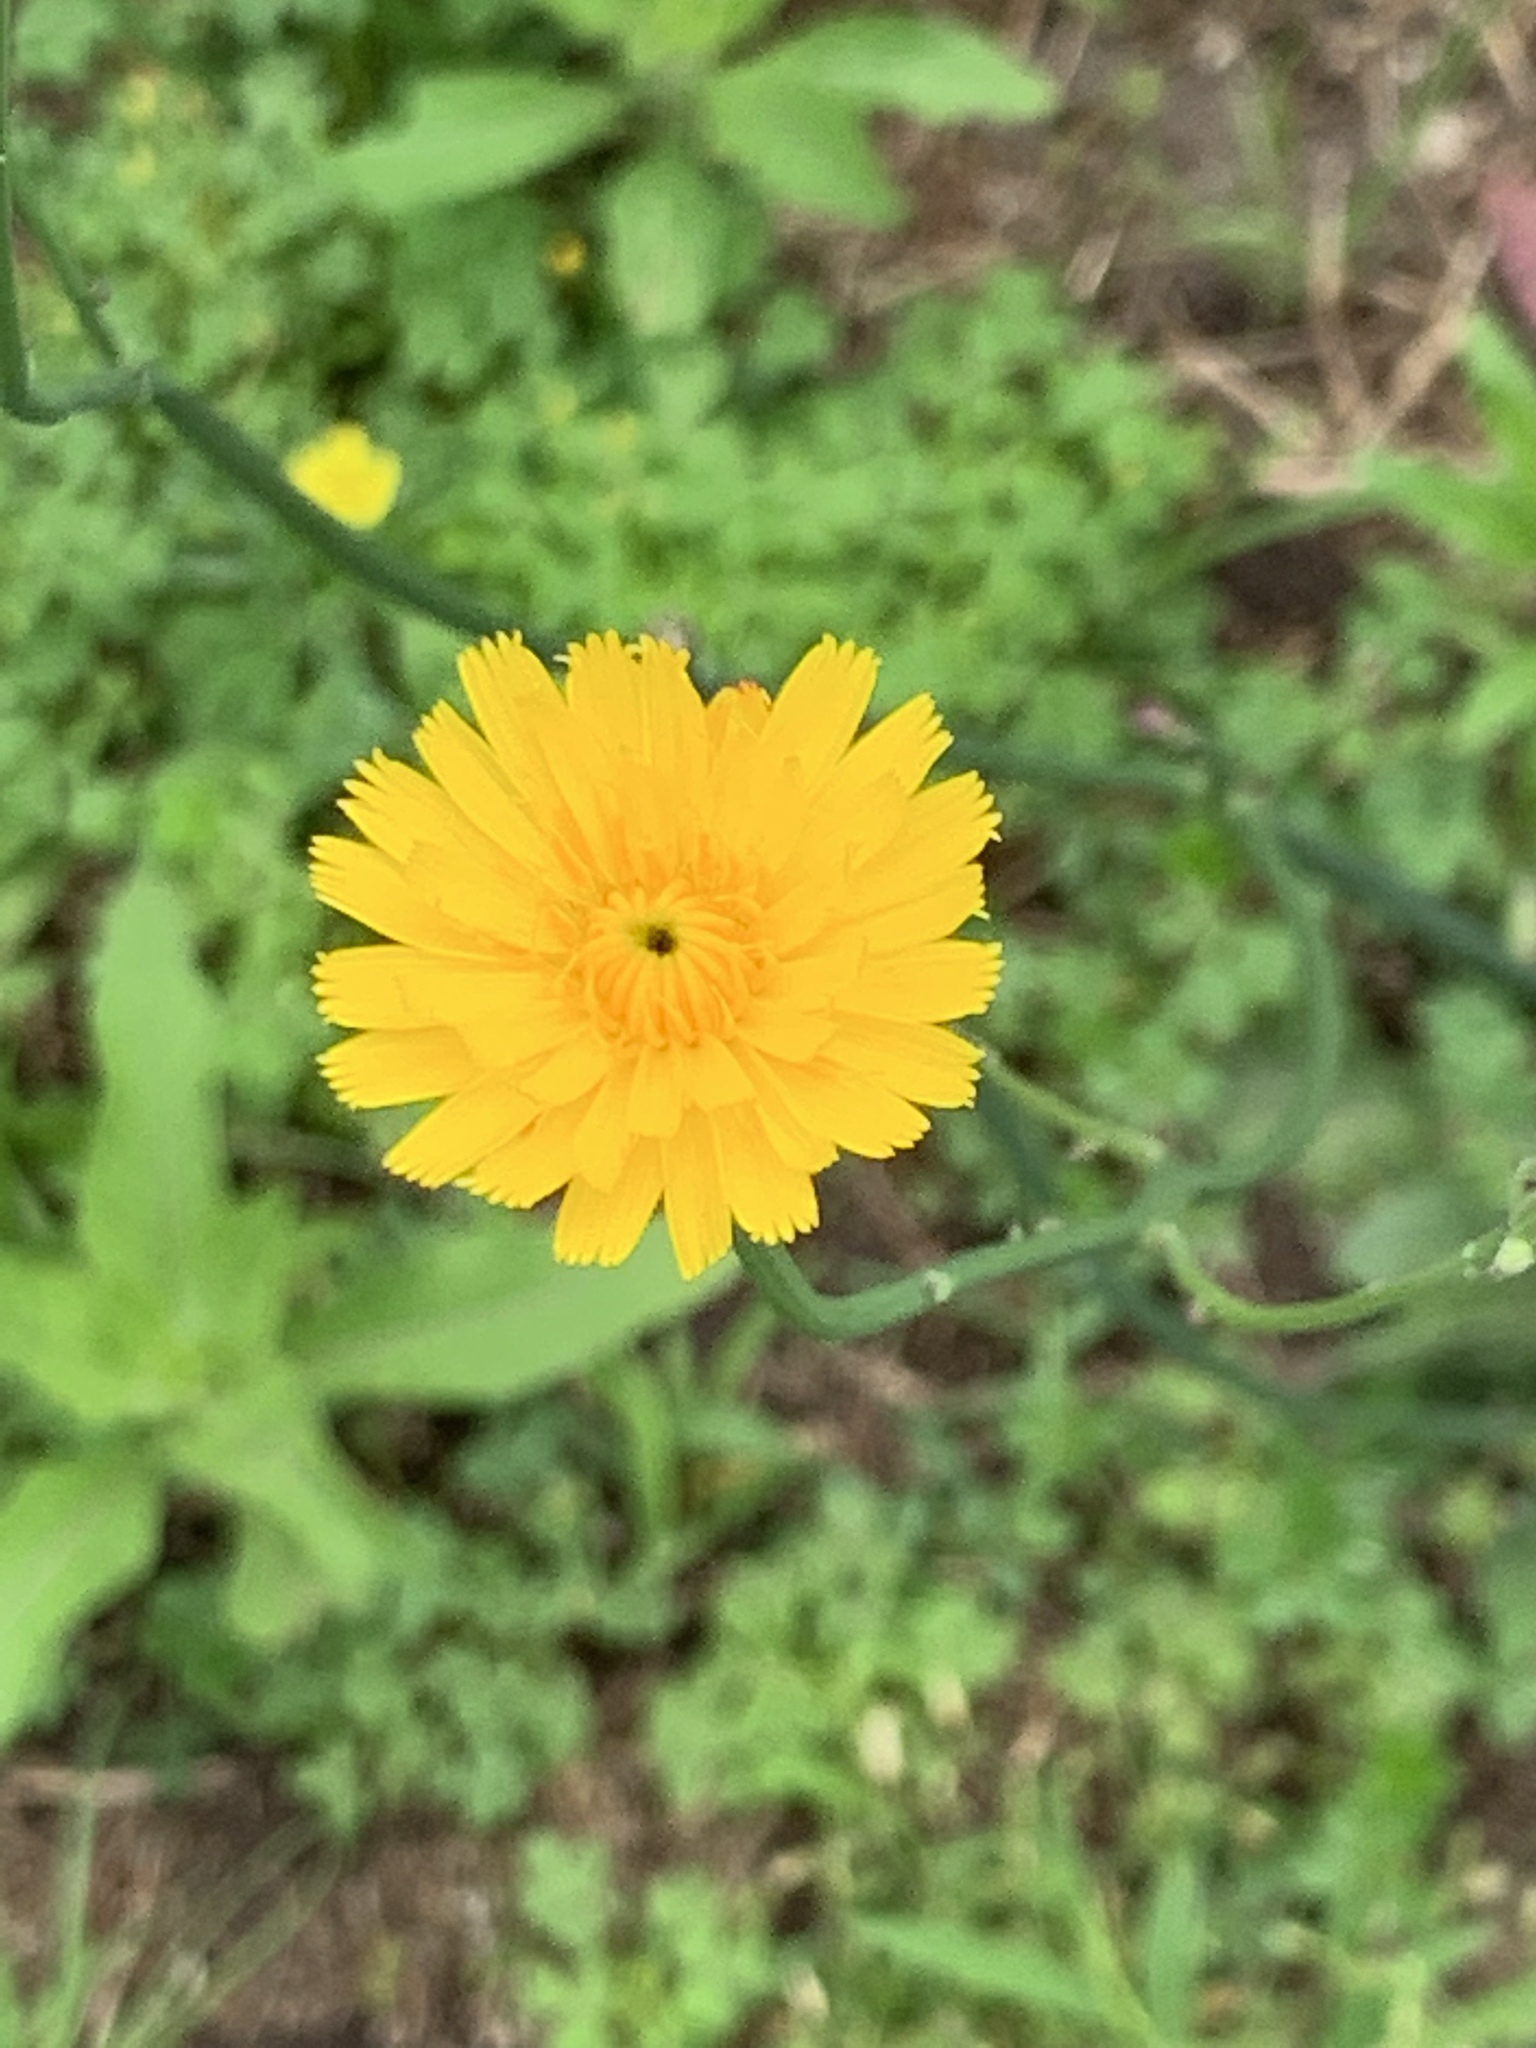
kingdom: Plantae
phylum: Tracheophyta
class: Magnoliopsida
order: Asterales
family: Asteraceae
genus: Hypochaeris
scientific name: Hypochaeris radicata
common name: Flatweed
